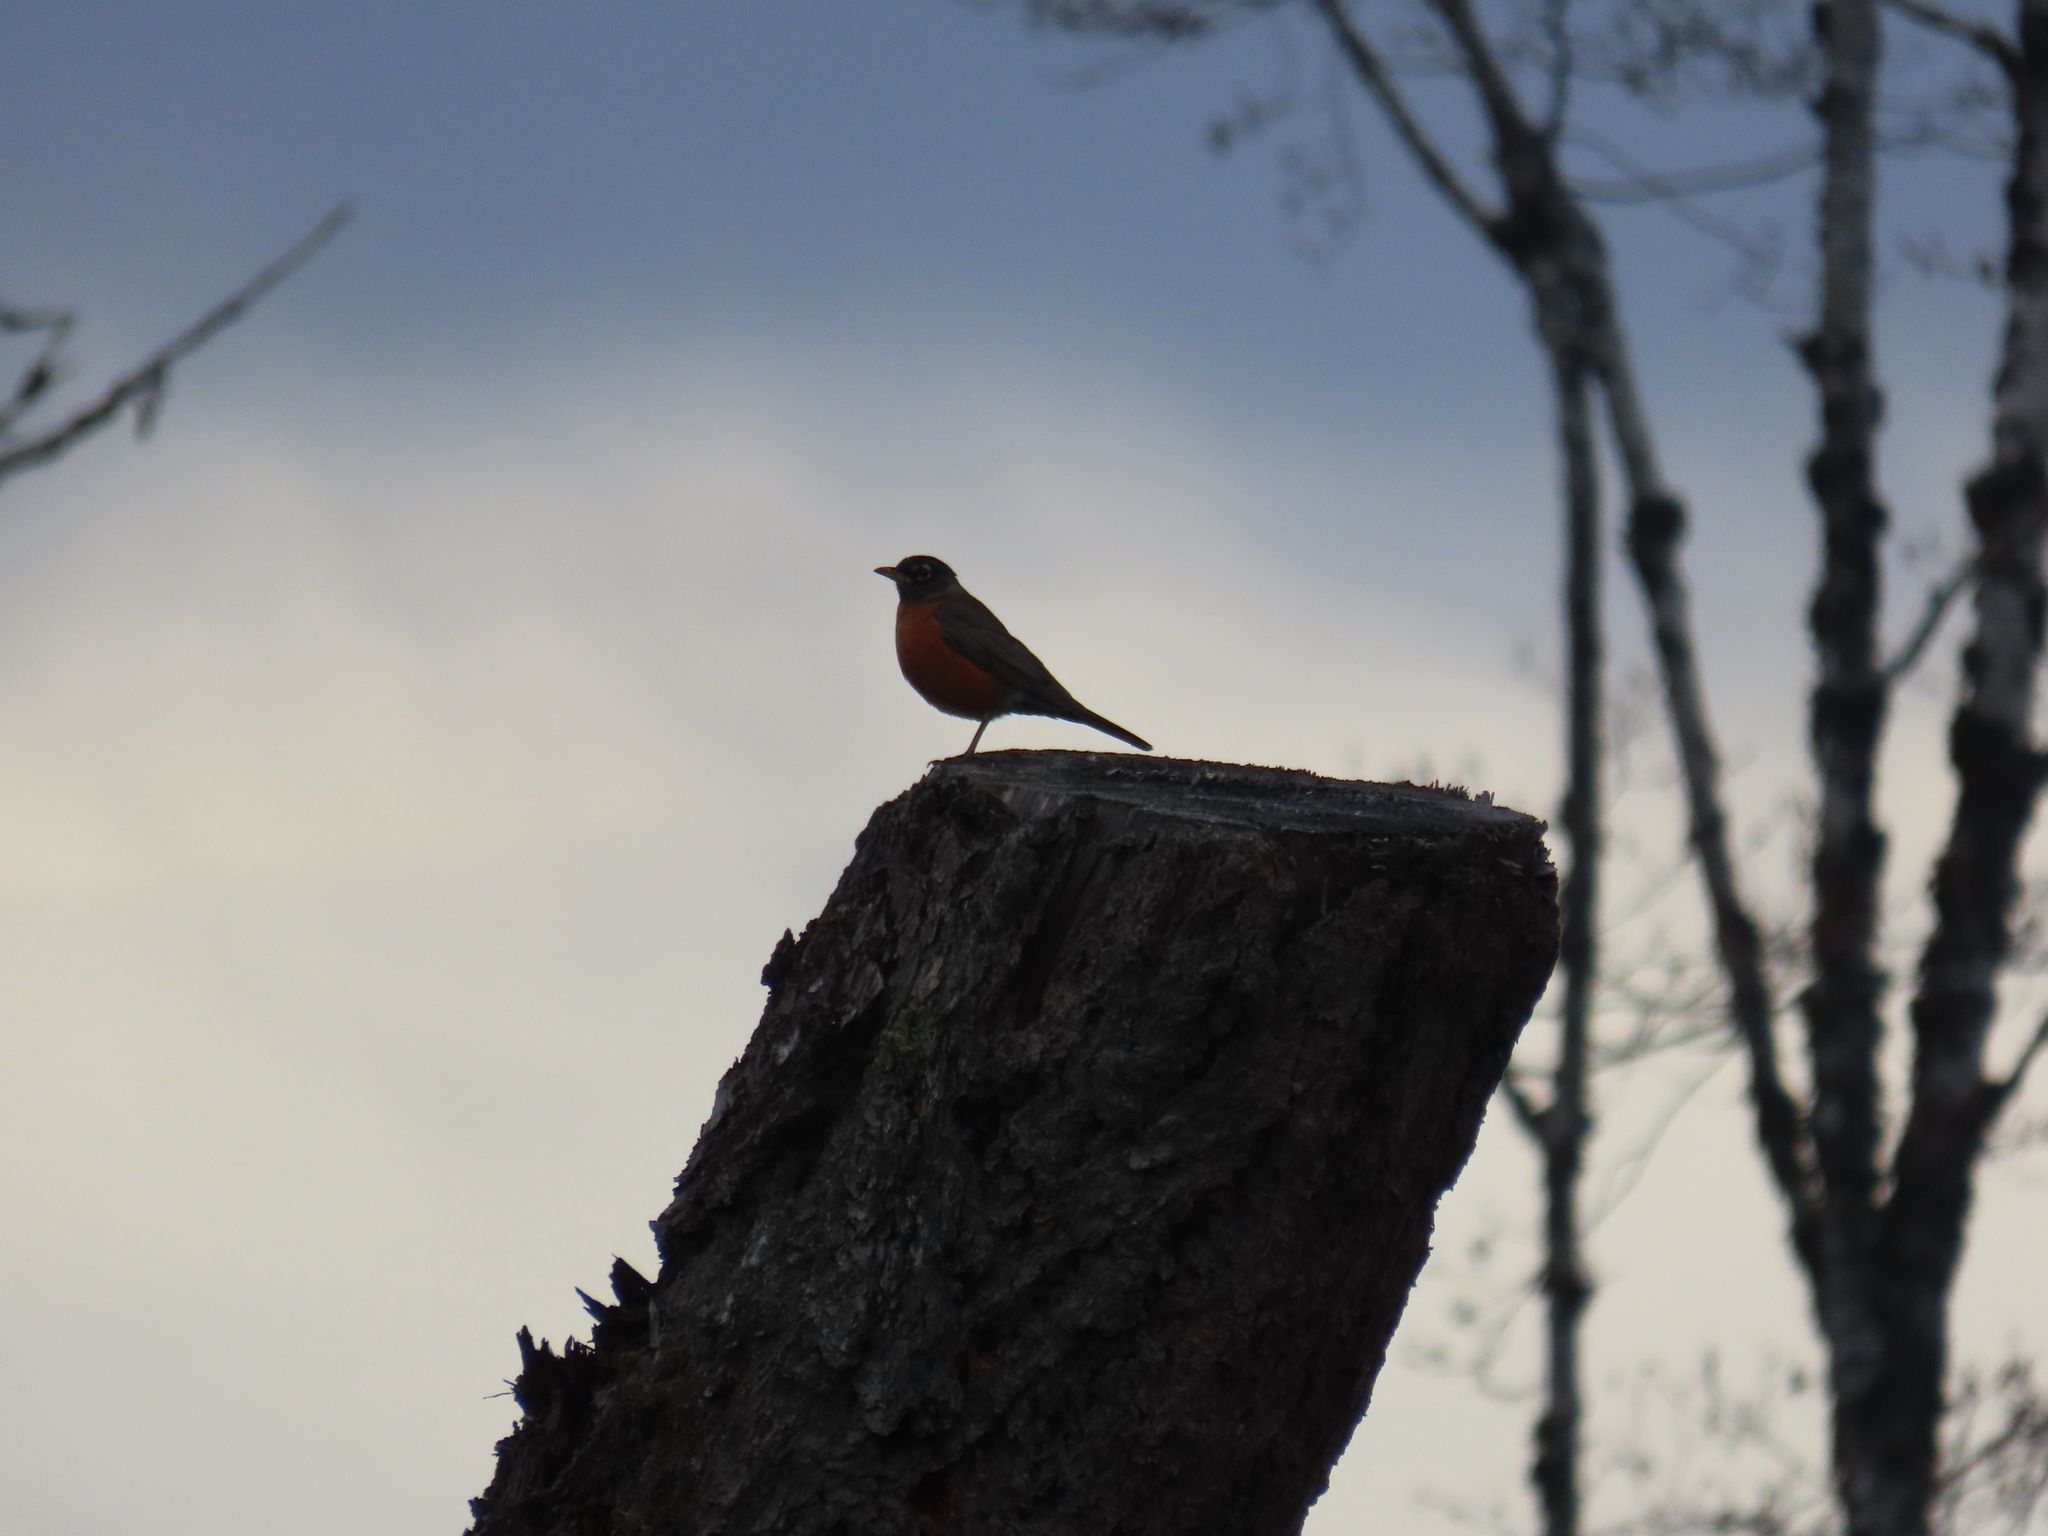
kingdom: Animalia
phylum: Chordata
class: Aves
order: Passeriformes
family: Turdidae
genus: Turdus
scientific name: Turdus migratorius
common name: American robin
